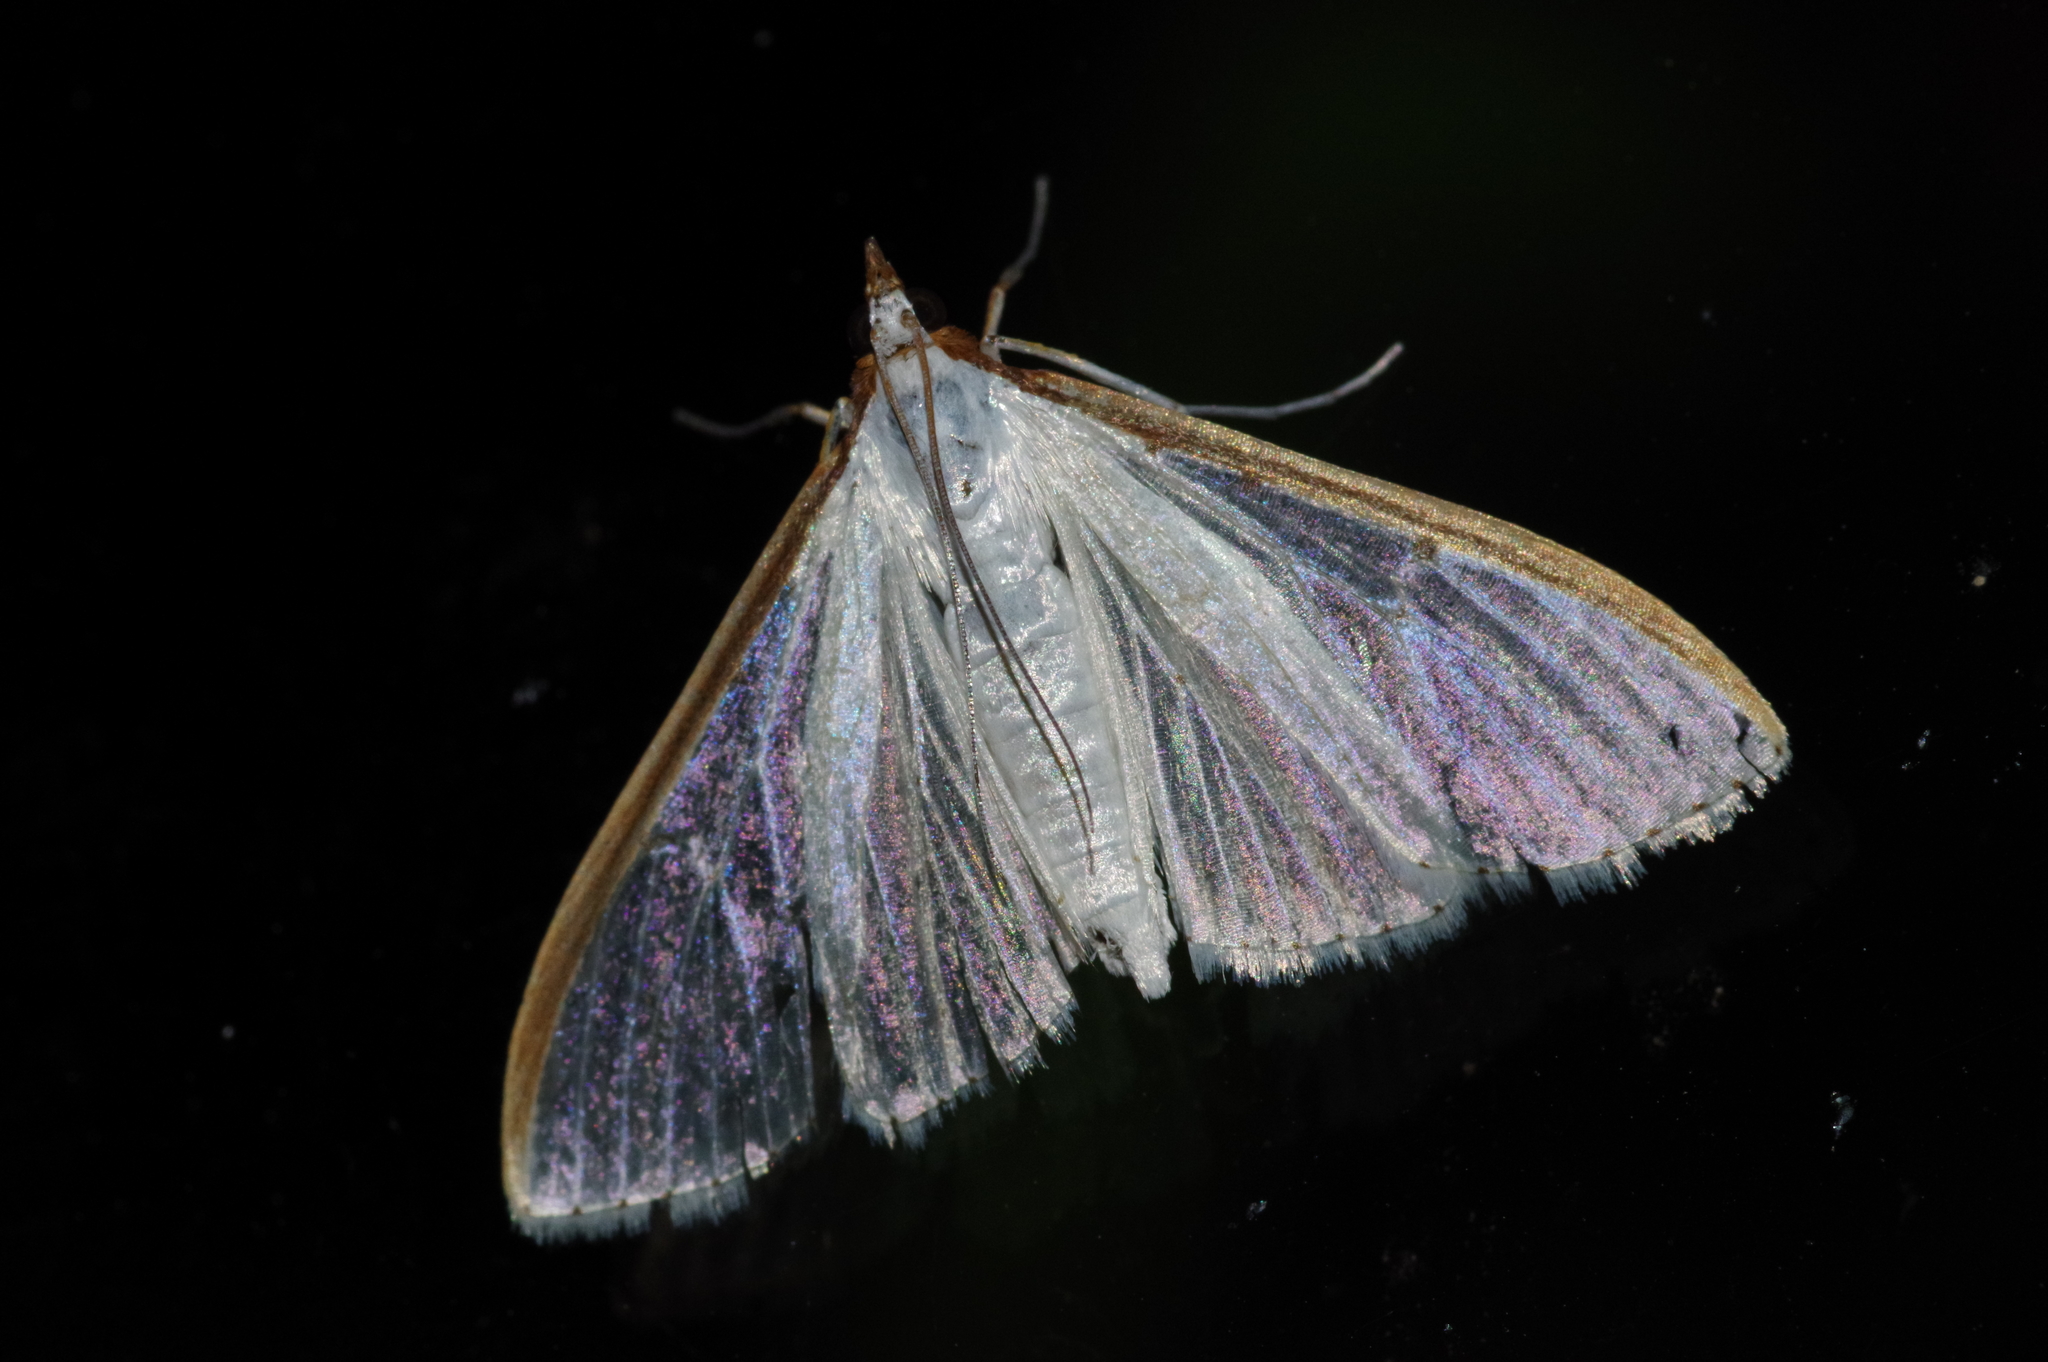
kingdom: Animalia
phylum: Arthropoda
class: Insecta
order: Lepidoptera
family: Crambidae
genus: Palpita
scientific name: Palpita nigropunctalis
